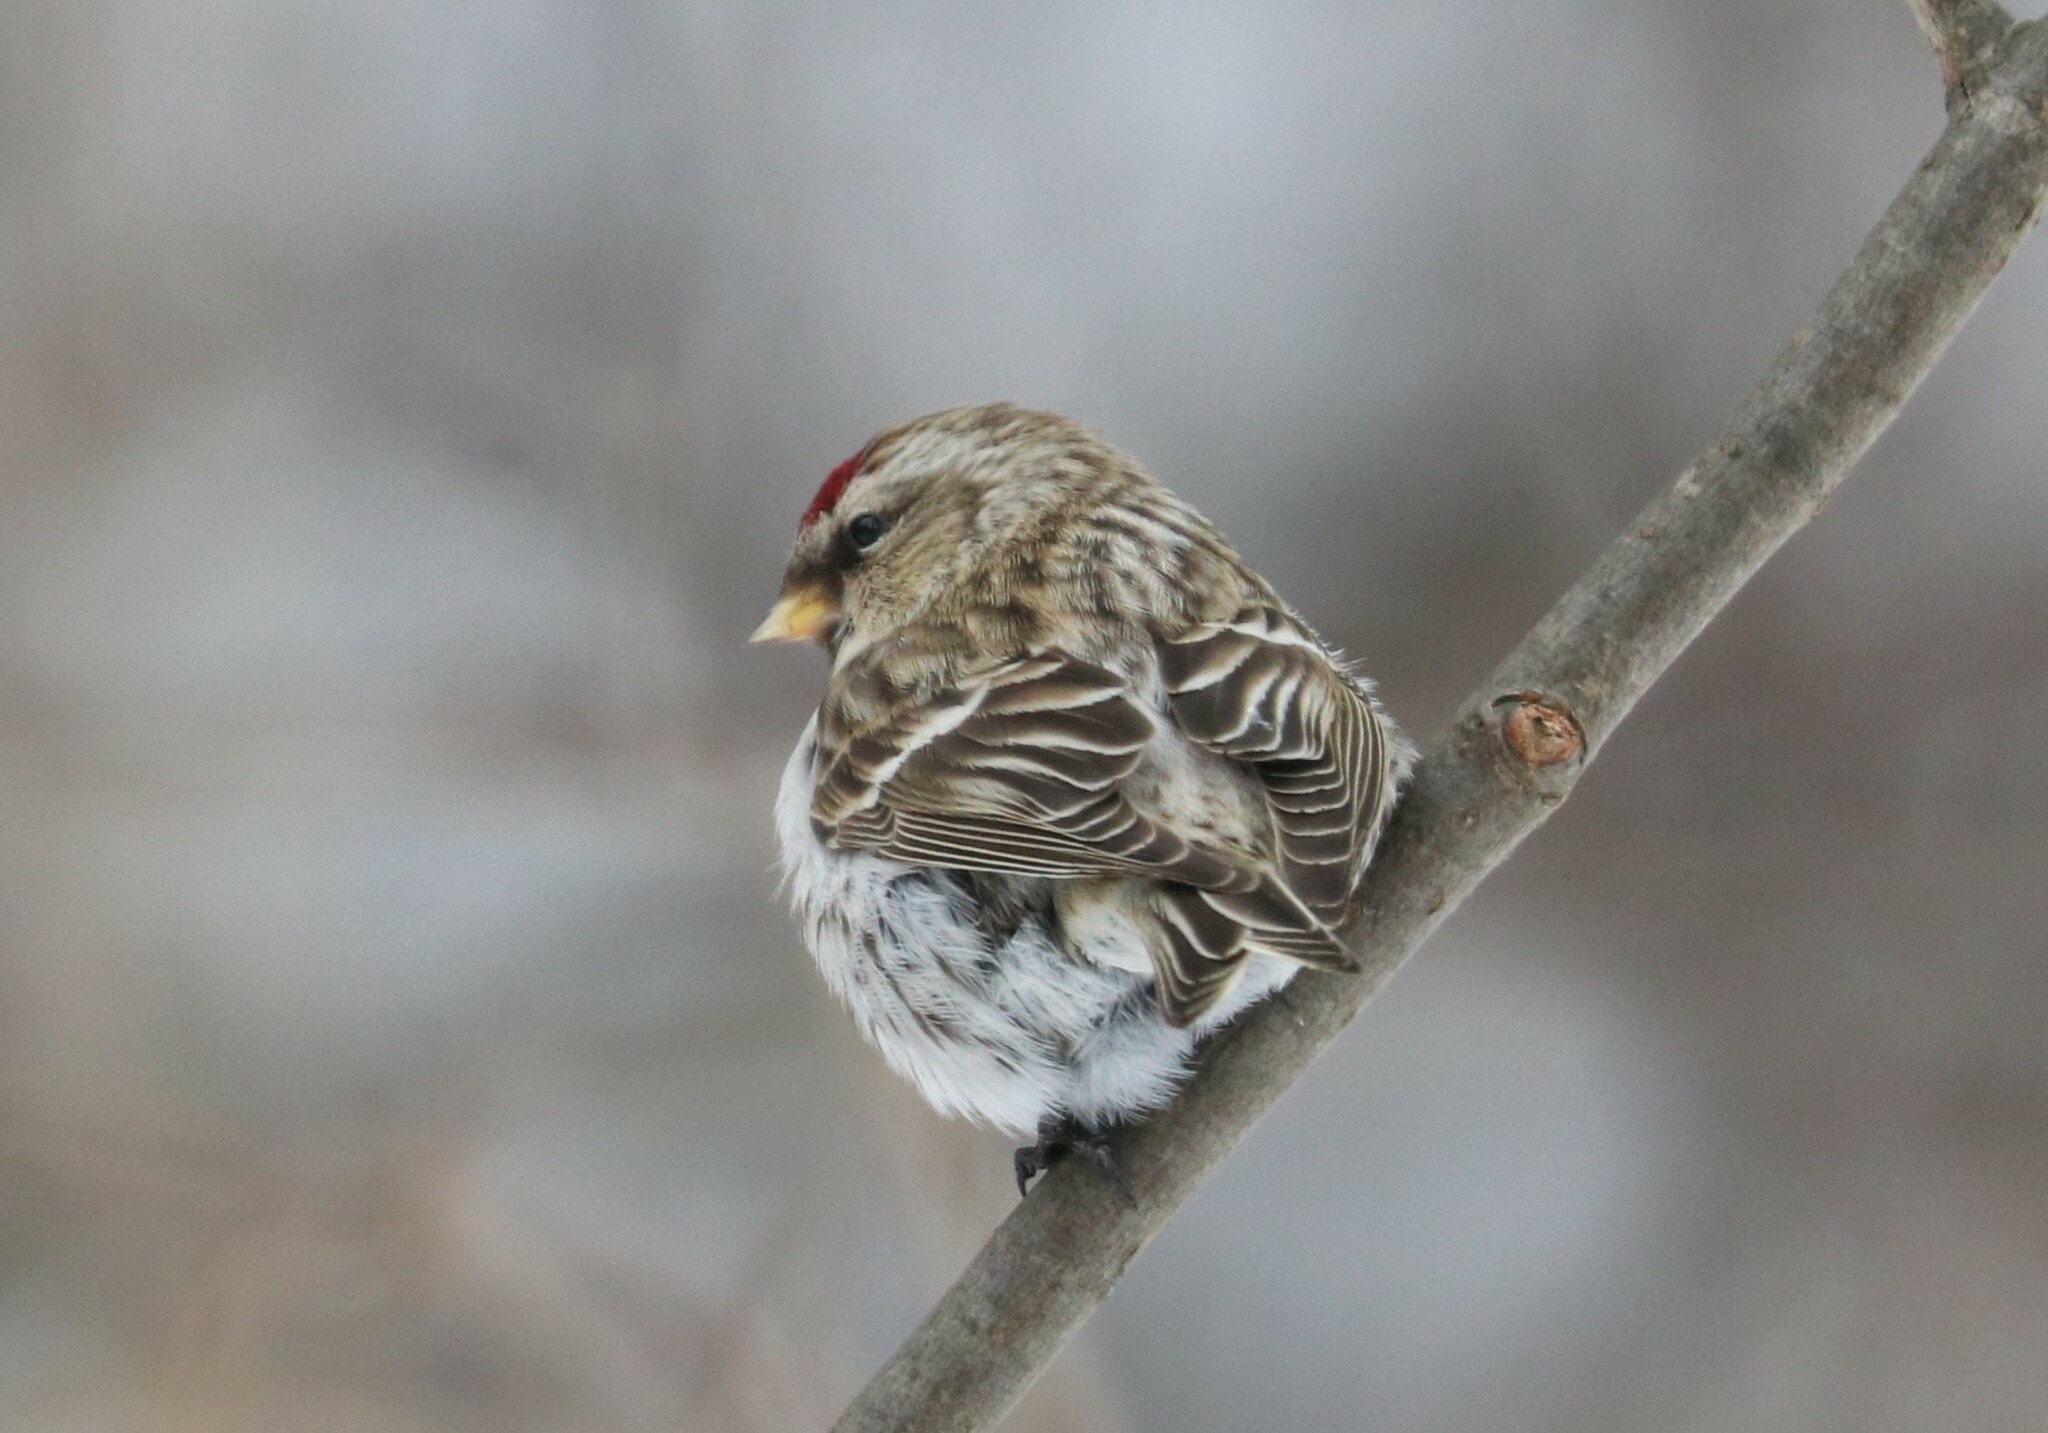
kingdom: Animalia
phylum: Chordata
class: Aves
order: Passeriformes
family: Fringillidae
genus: Acanthis
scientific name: Acanthis flammea
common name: Common redpoll
